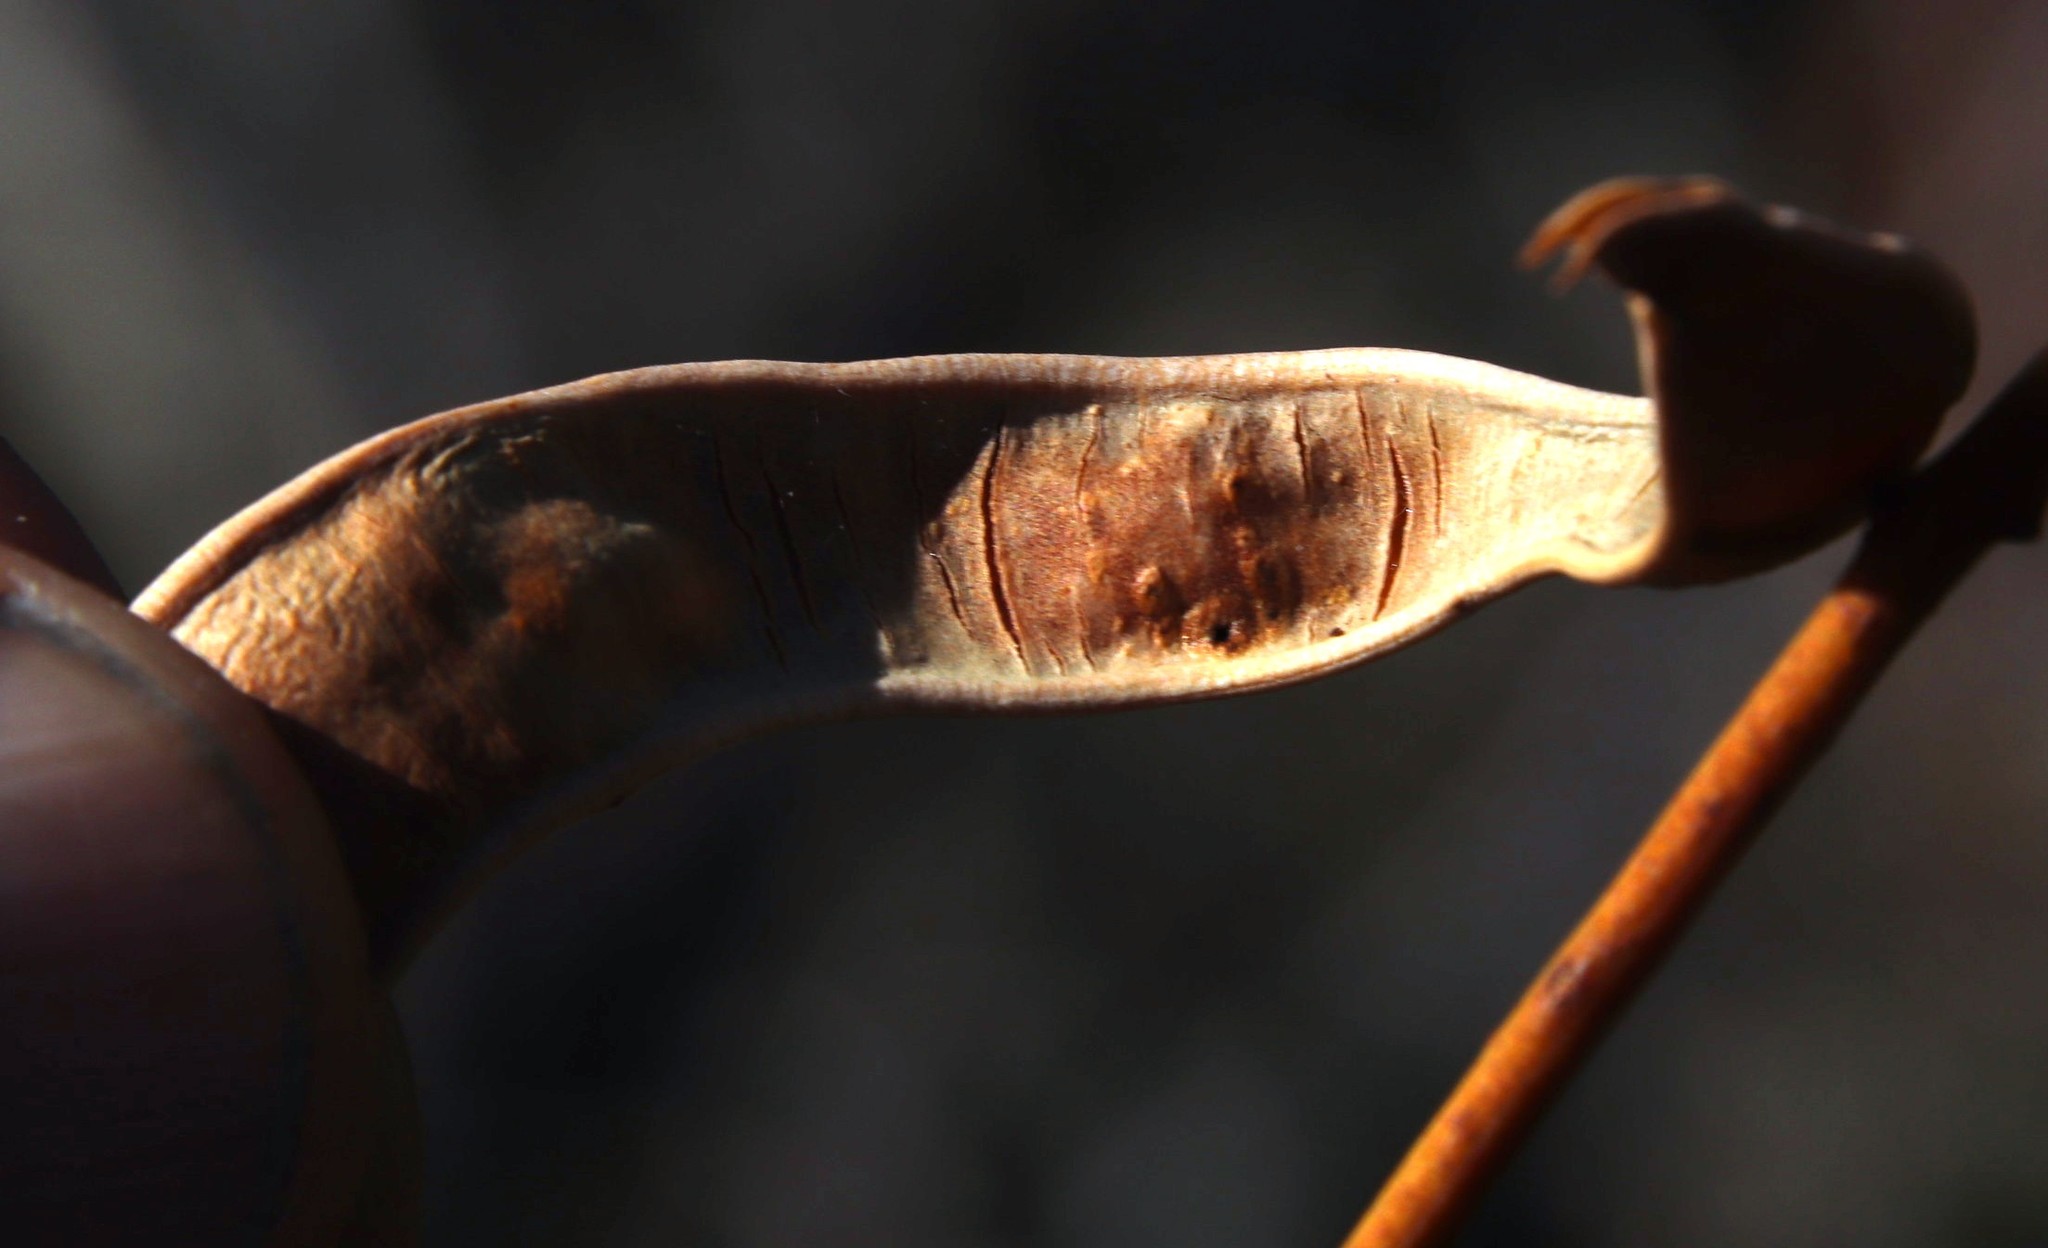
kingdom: Plantae
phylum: Tracheophyta
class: Magnoliopsida
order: Fabales
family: Fabaceae
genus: Acacia
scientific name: Acacia cyclops
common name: Coastal wattle
